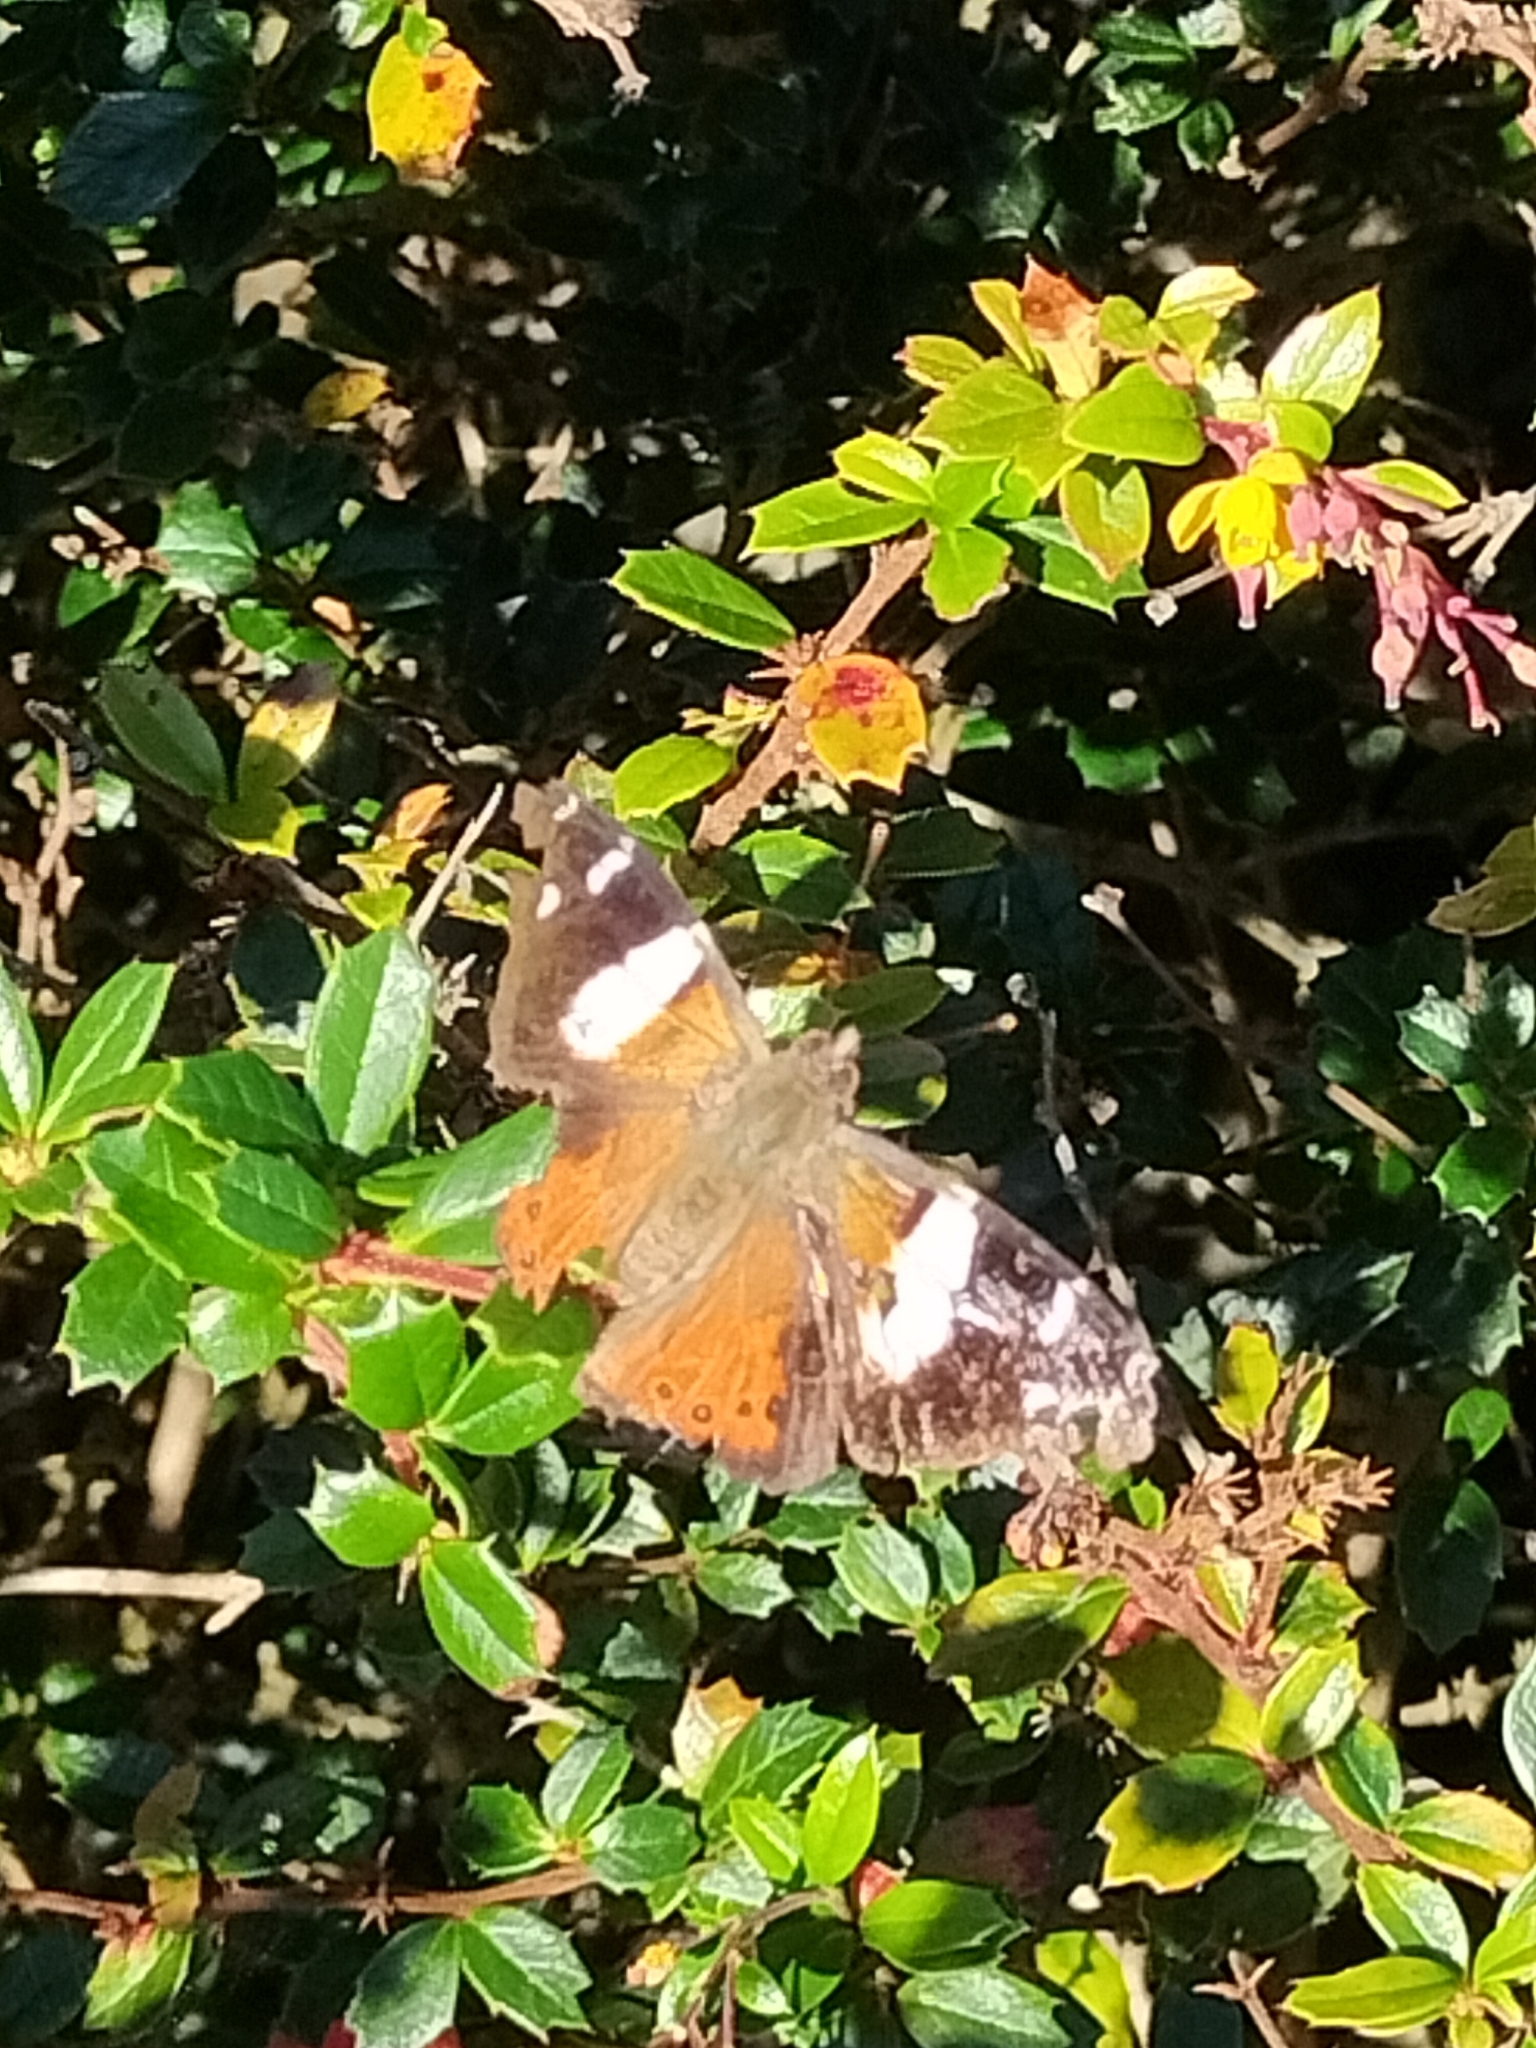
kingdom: Animalia
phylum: Arthropoda
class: Insecta
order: Lepidoptera
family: Nymphalidae
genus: Vanessa
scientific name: Vanessa itea
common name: Yellow admiral
